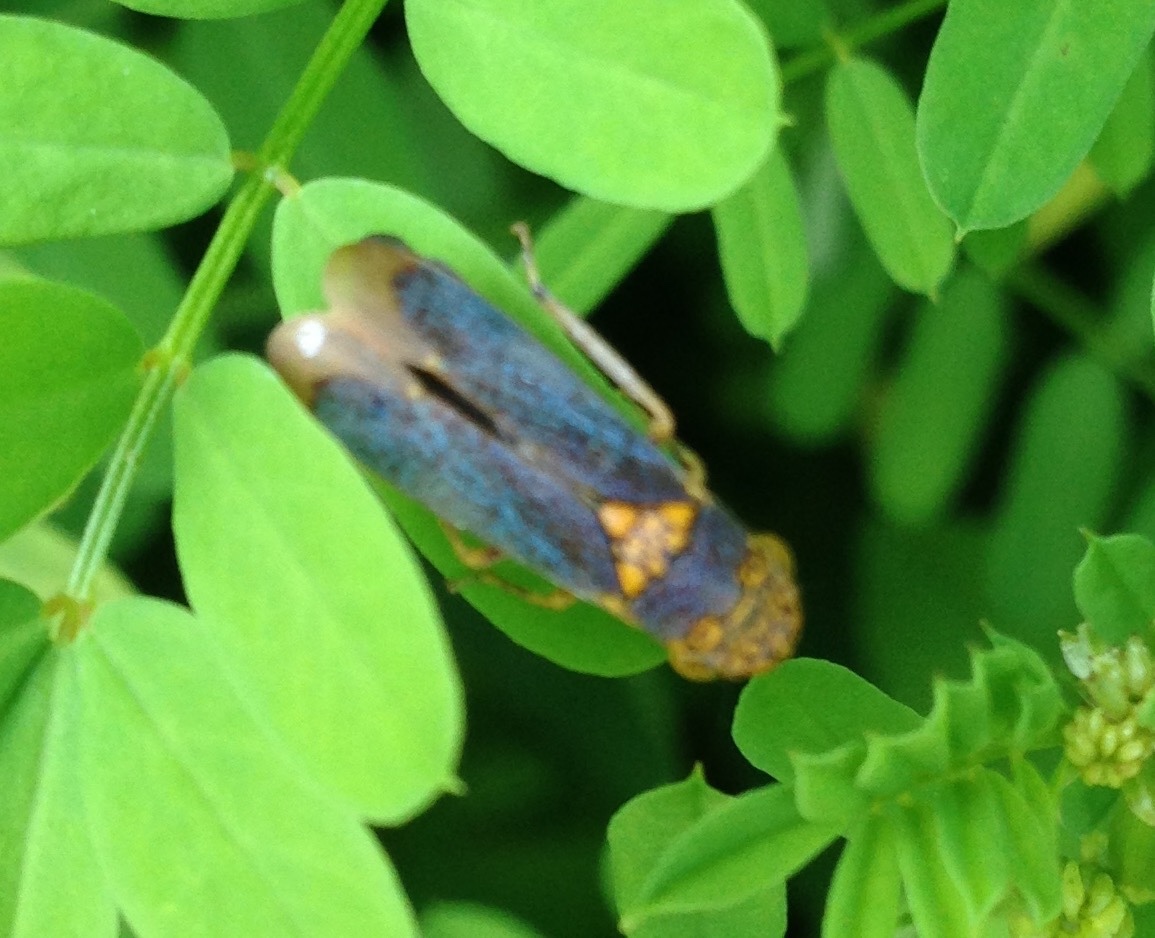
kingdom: Animalia
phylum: Arthropoda
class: Insecta
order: Hemiptera
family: Cicadellidae
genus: Oncometopia
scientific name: Oncometopia orbona
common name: Broad-headed sharpshooter
